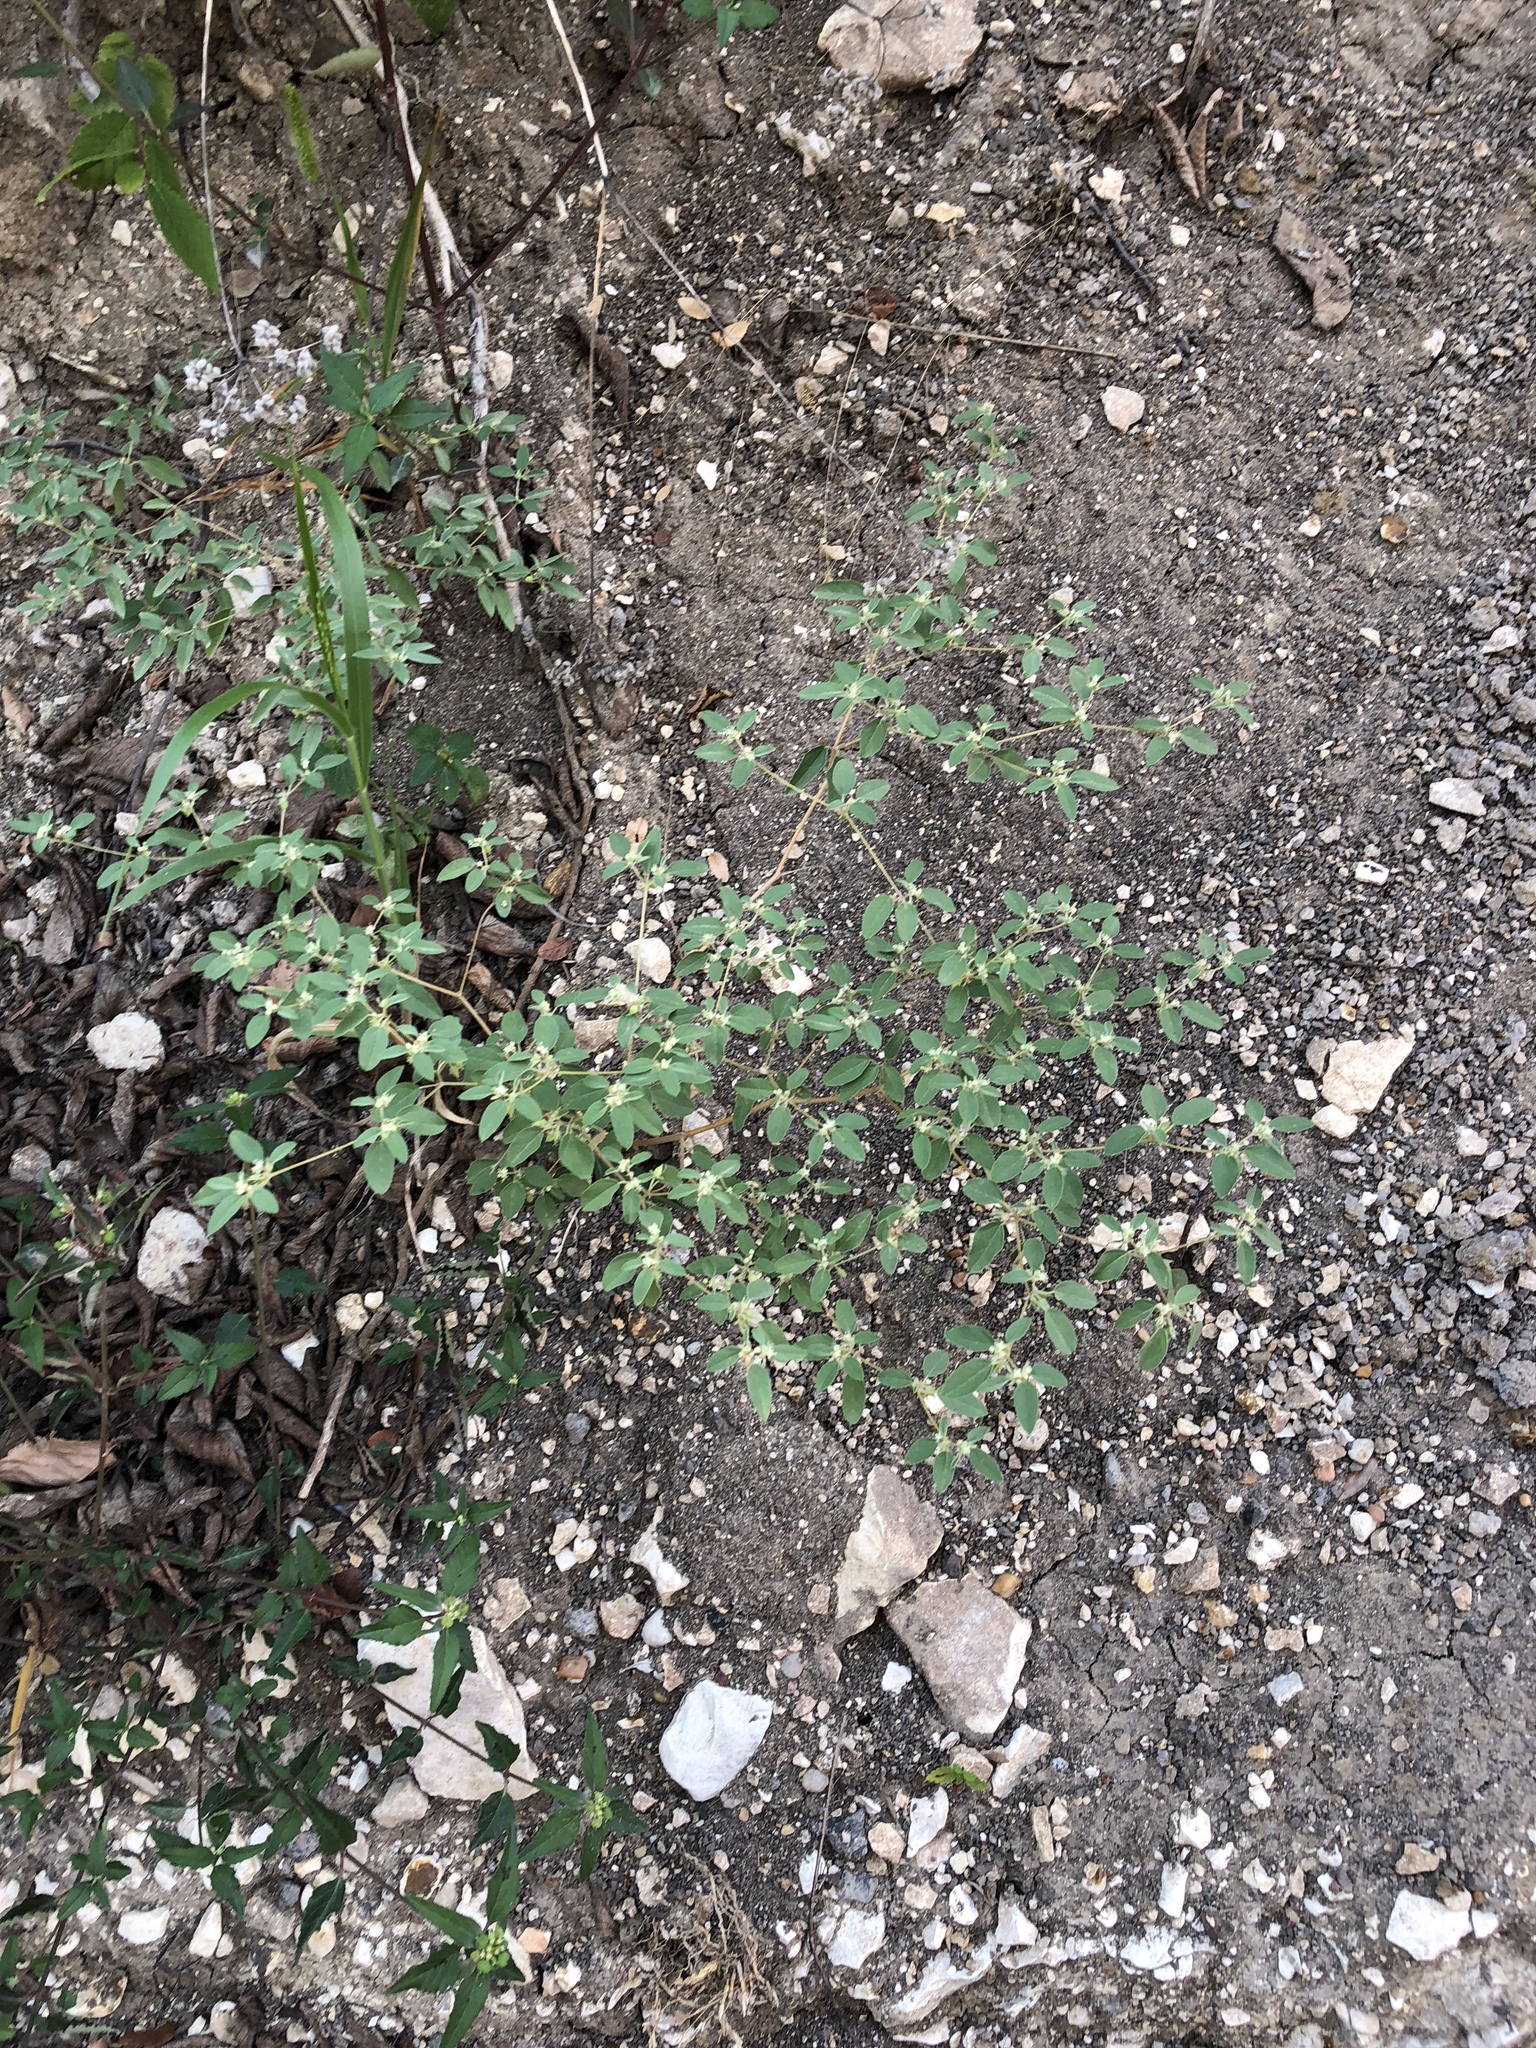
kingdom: Plantae
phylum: Tracheophyta
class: Magnoliopsida
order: Malpighiales
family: Euphorbiaceae
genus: Croton
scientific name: Croton monanthogynus
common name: One-seed croton
